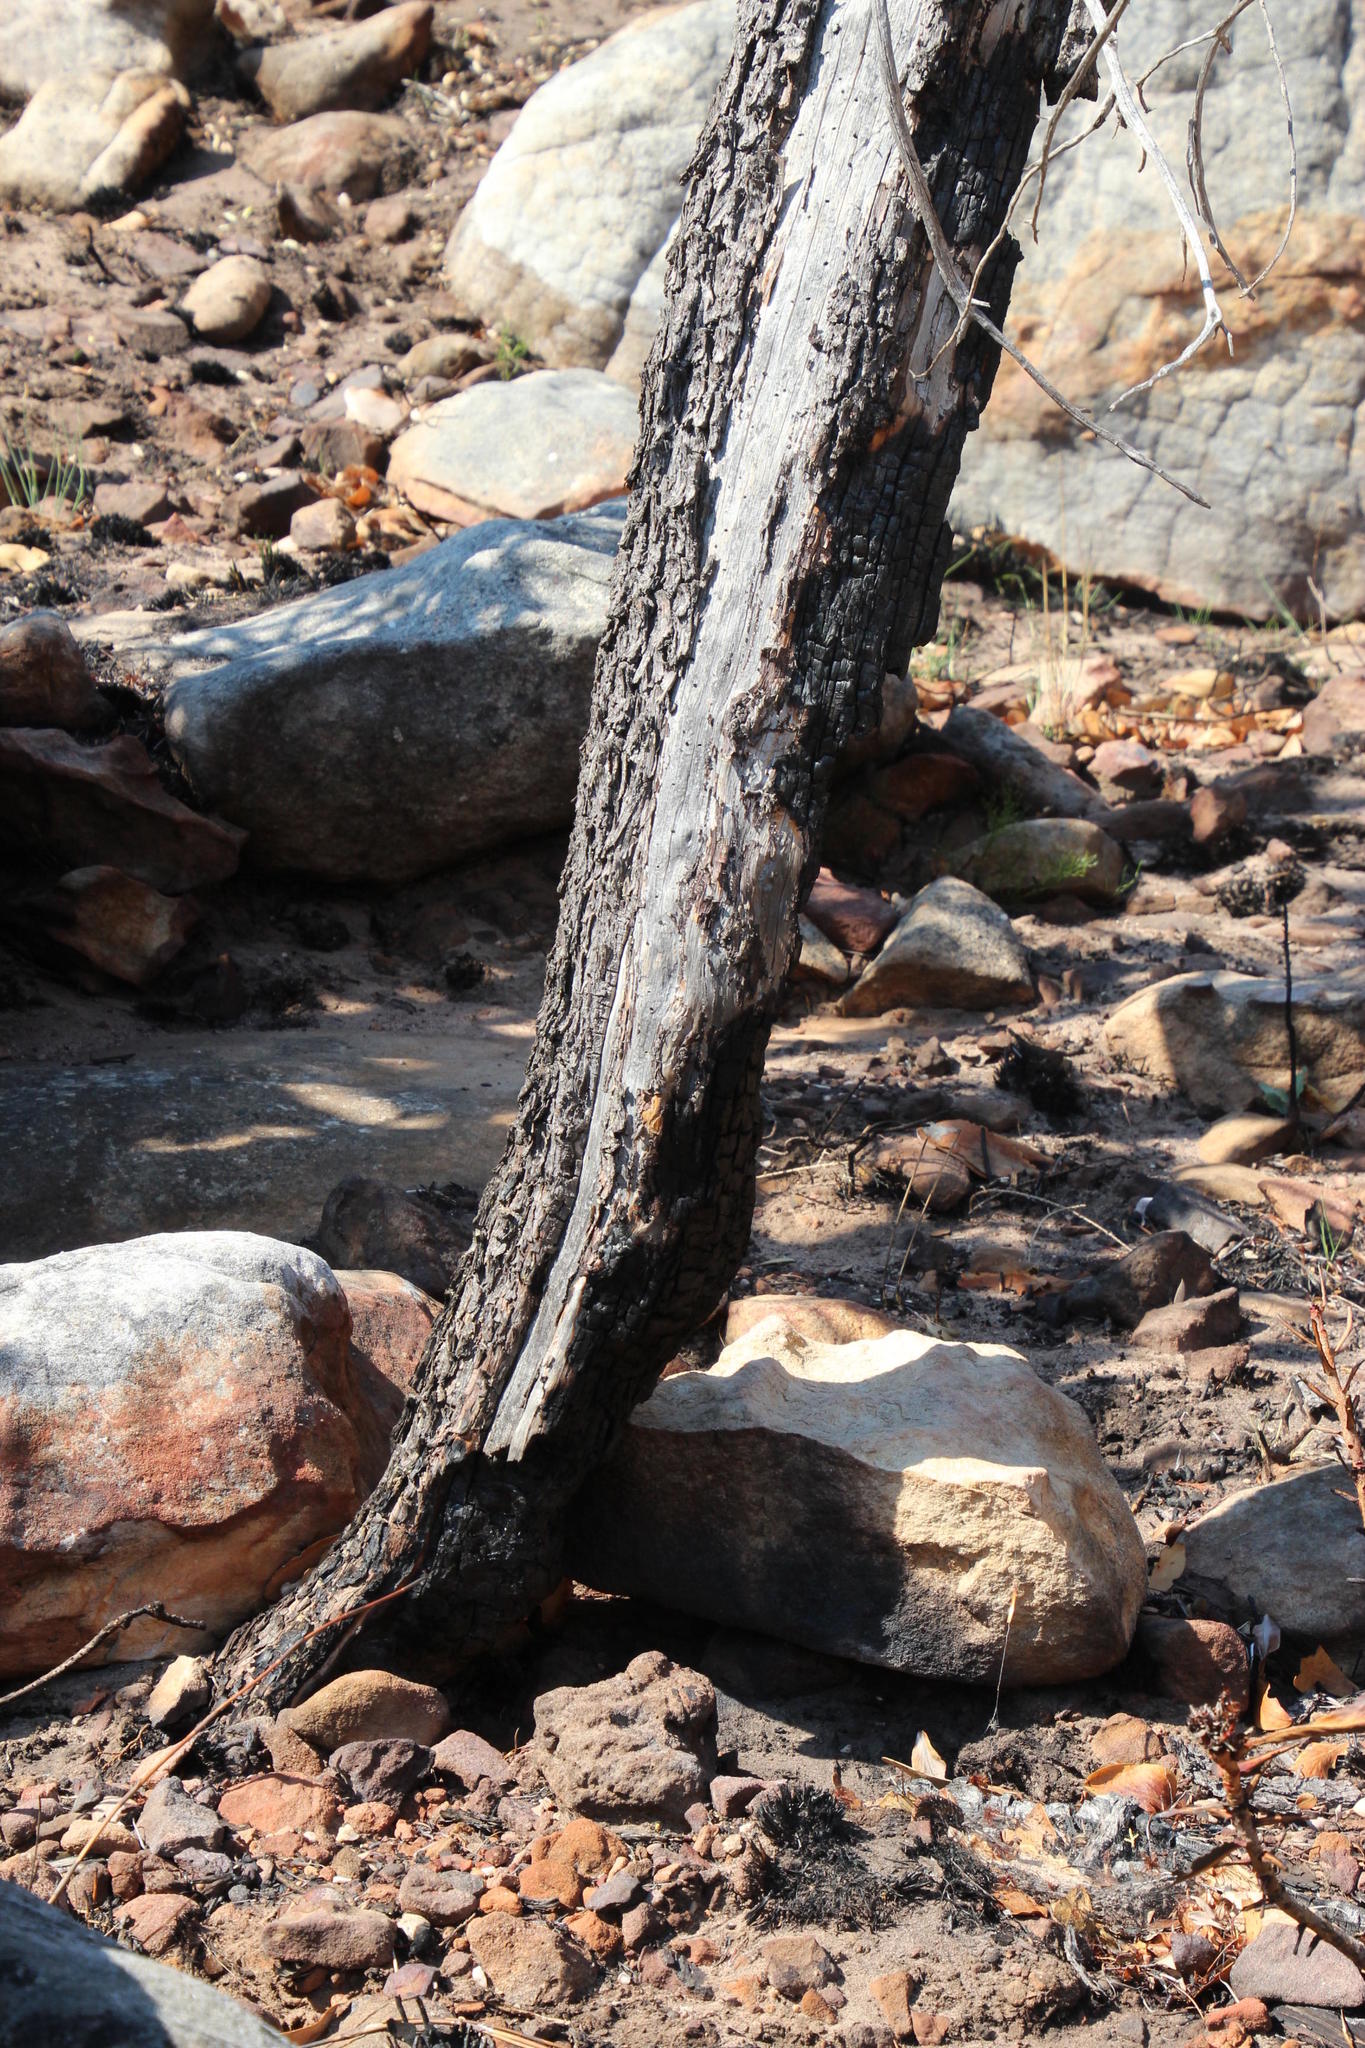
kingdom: Plantae
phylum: Tracheophyta
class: Pinopsida
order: Pinales
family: Cupressaceae
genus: Widdringtonia
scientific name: Widdringtonia nodiflora
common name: Cape cypress
